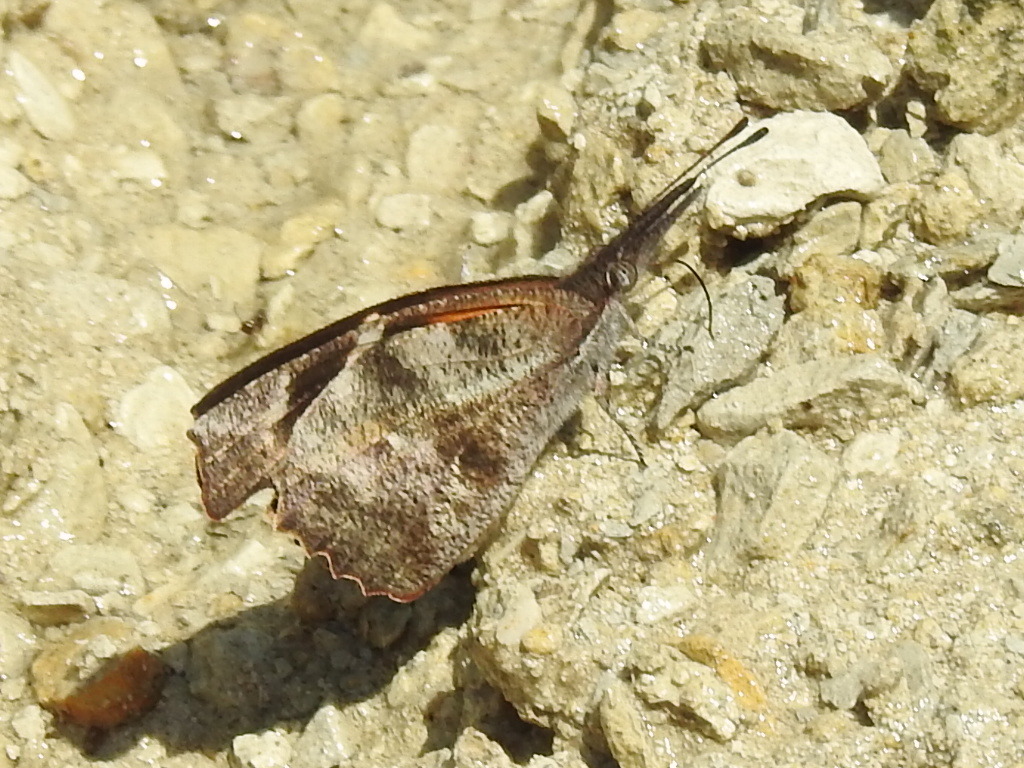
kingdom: Animalia
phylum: Arthropoda
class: Insecta
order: Lepidoptera
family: Nymphalidae
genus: Libytheana
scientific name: Libytheana carinenta
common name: American snout
